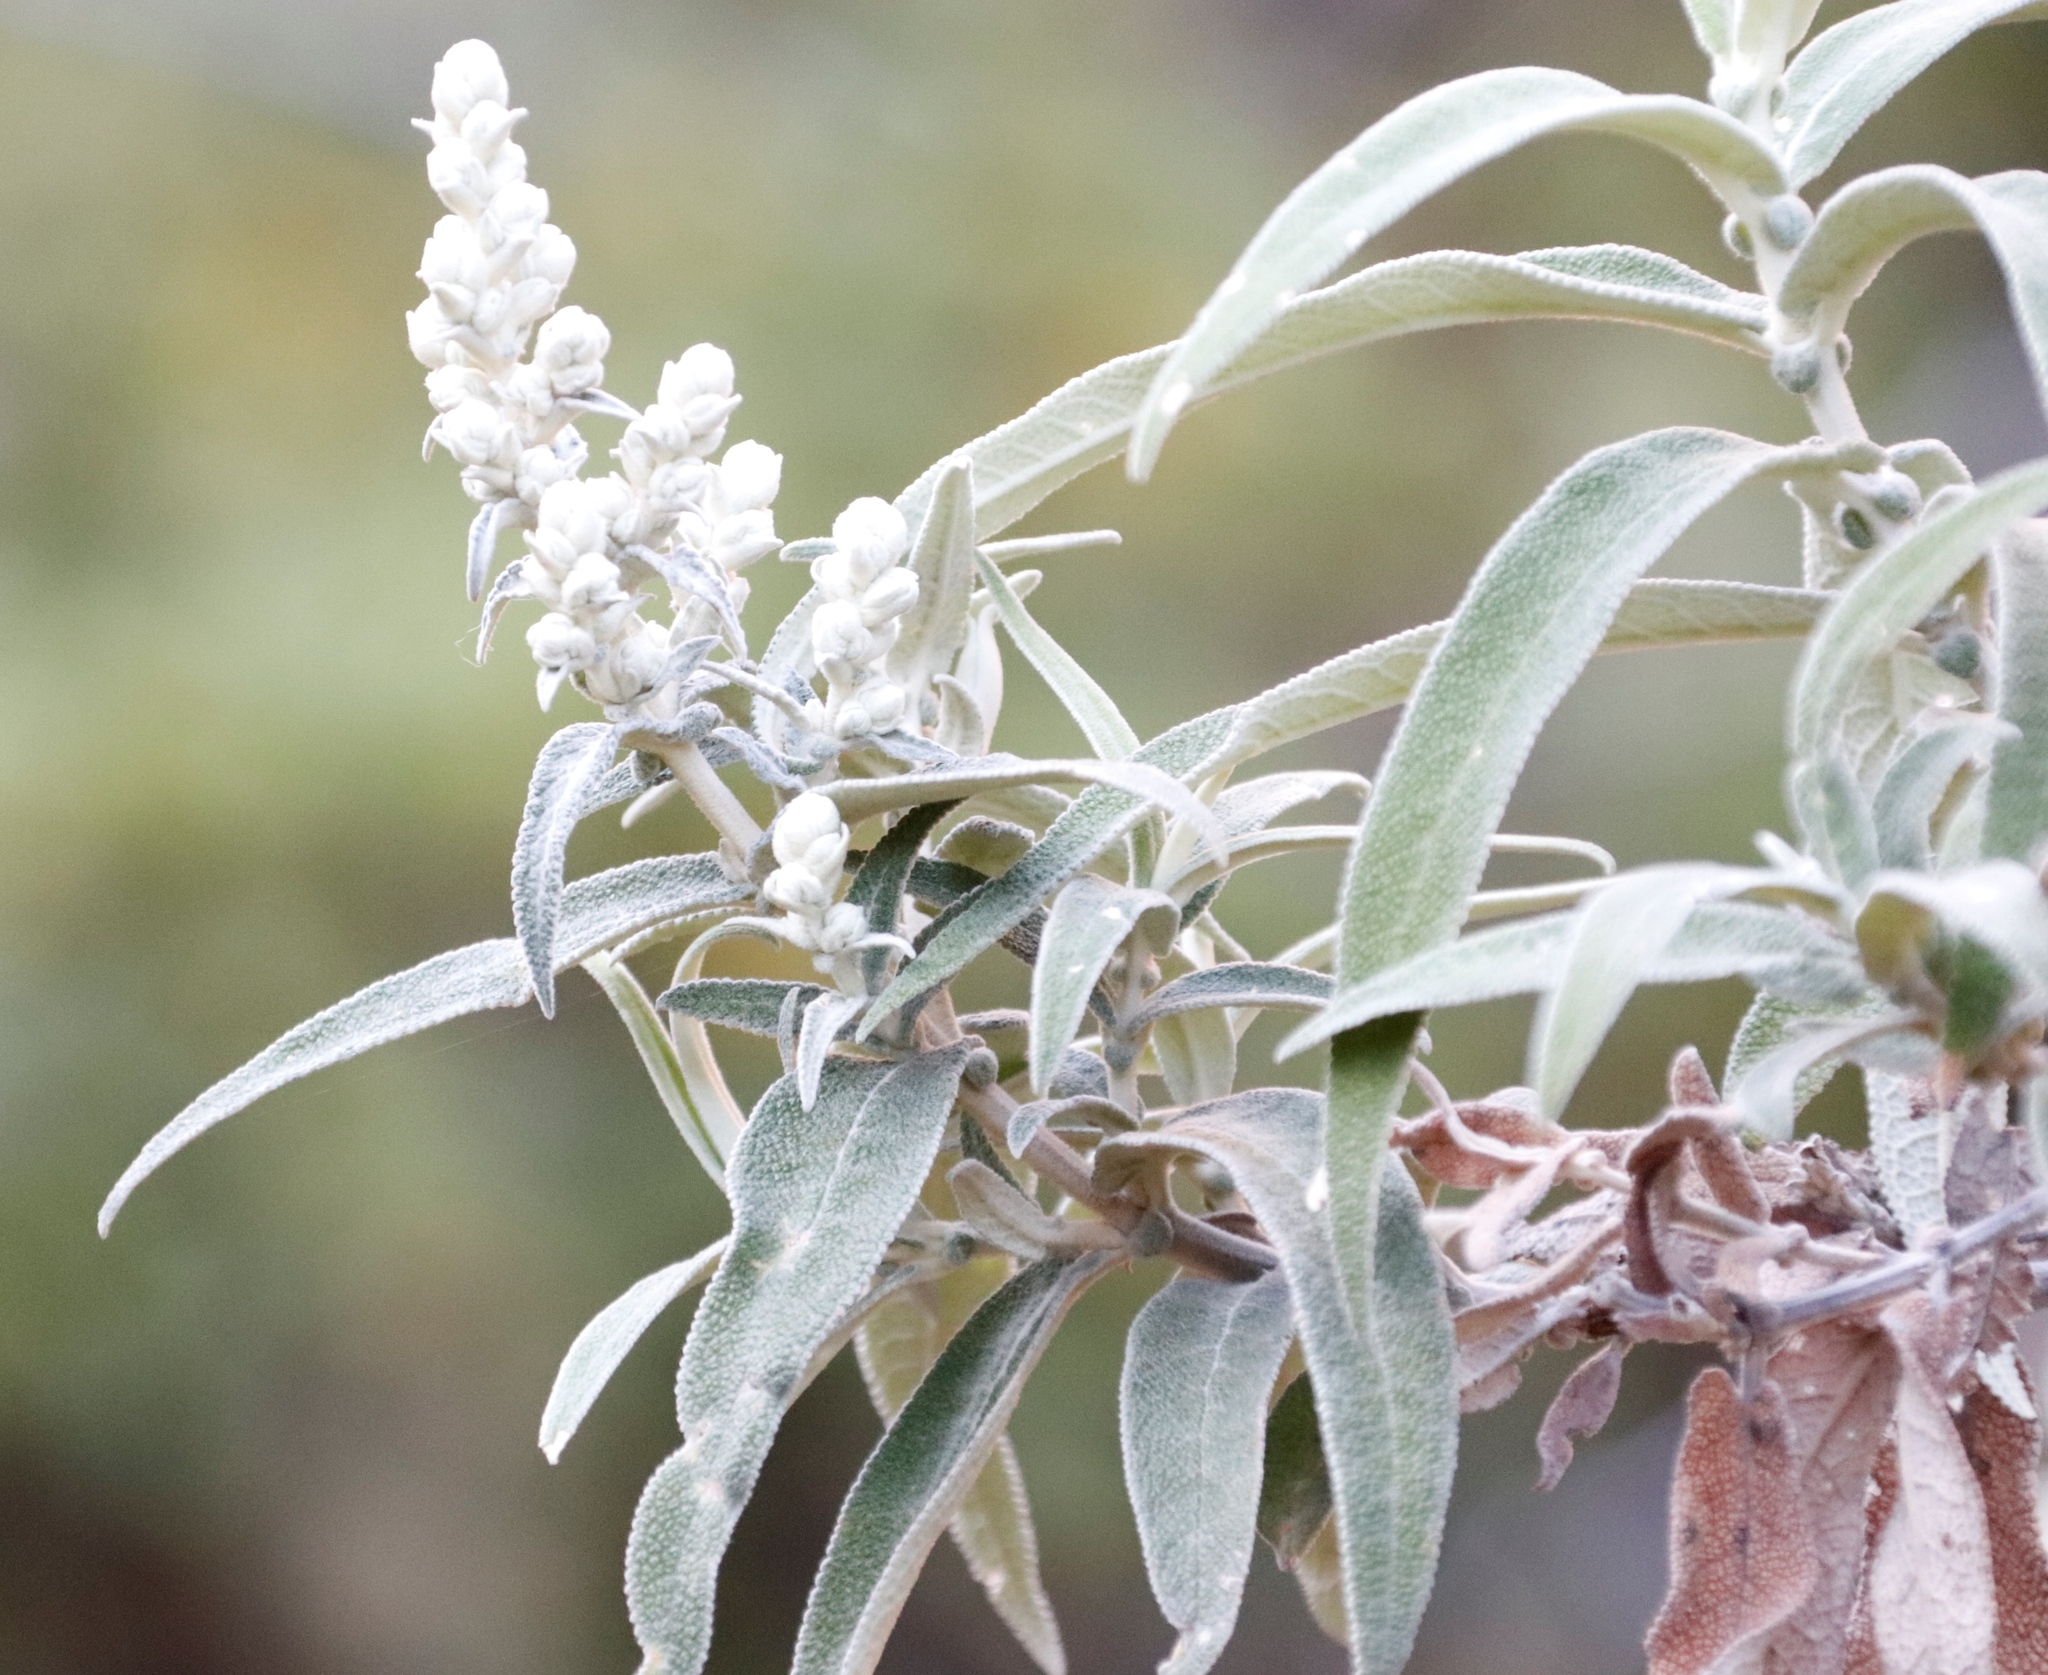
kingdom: Plantae
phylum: Tracheophyta
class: Magnoliopsida
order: Lamiales
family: Scrophulariaceae
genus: Buddleja
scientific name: Buddleja salviifolia
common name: Sagewood
